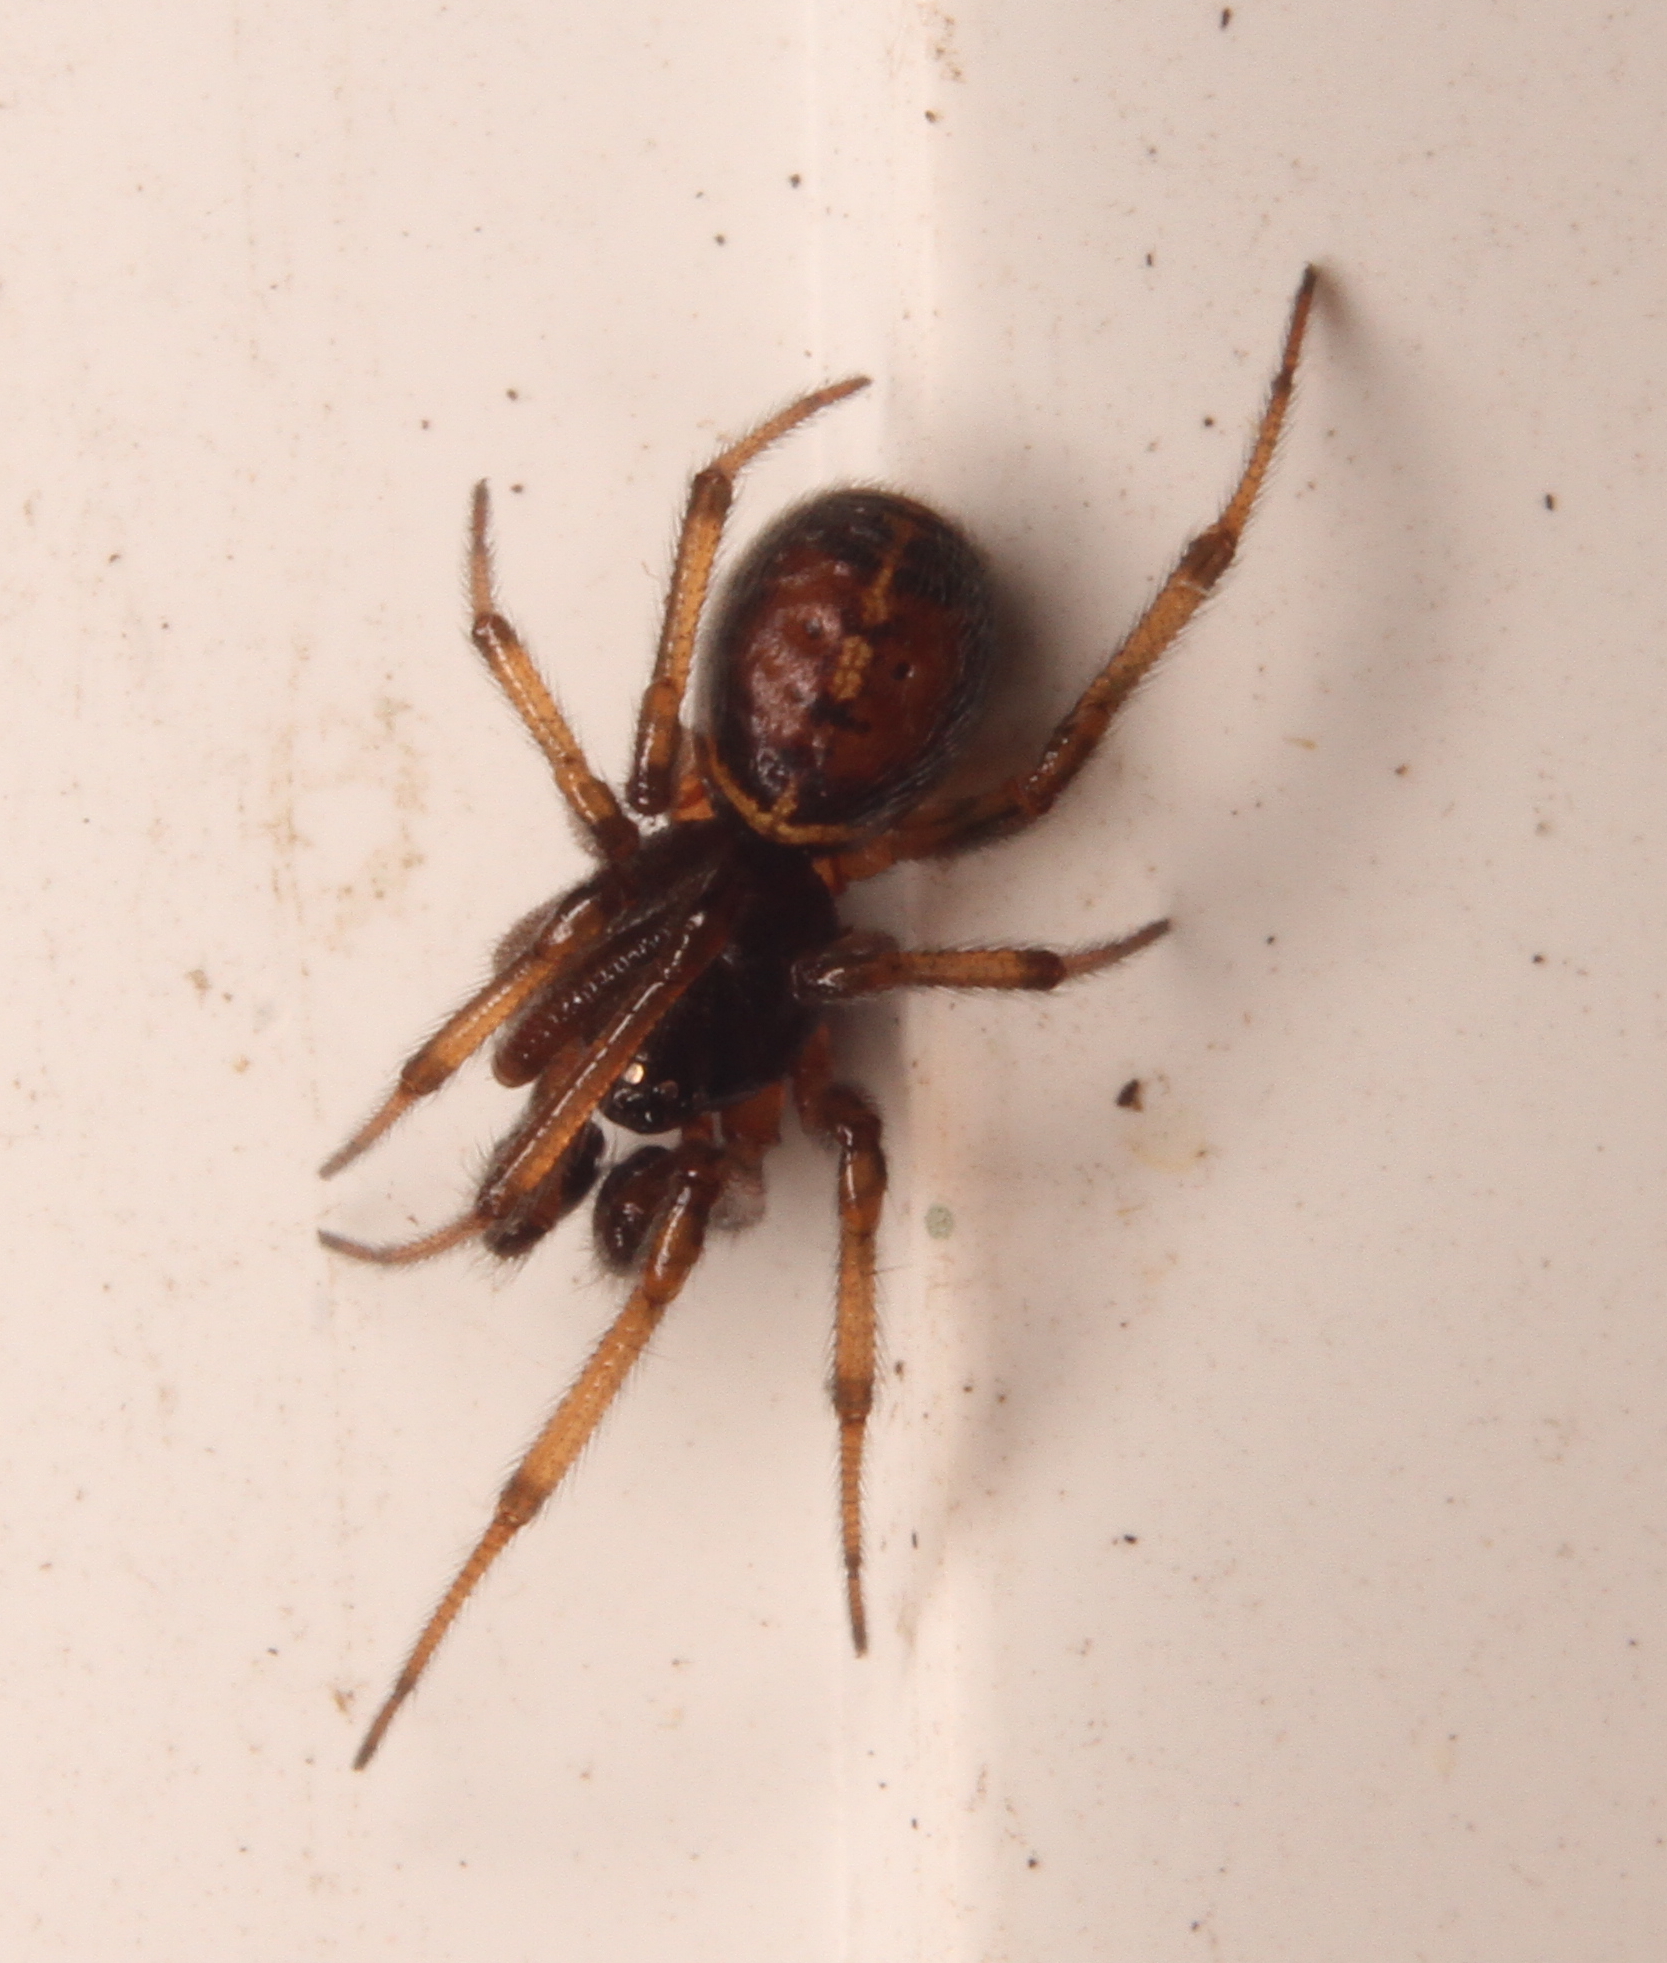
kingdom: Animalia
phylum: Arthropoda
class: Arachnida
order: Araneae
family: Theridiidae
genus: Steatoda
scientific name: Steatoda bipunctata
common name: False widow
